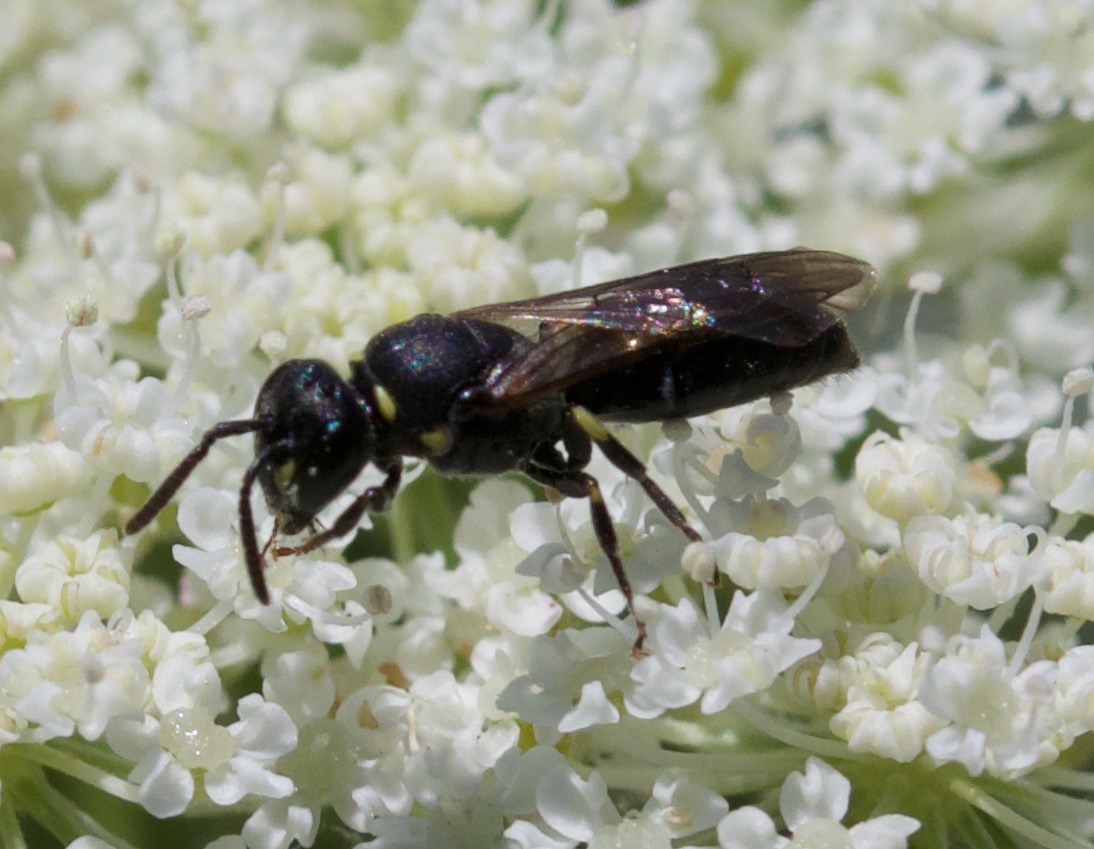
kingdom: Animalia
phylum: Arthropoda
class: Insecta
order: Hymenoptera
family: Colletidae
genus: Hylaeus
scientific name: Hylaeus modestus
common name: Yellow-faced bee
